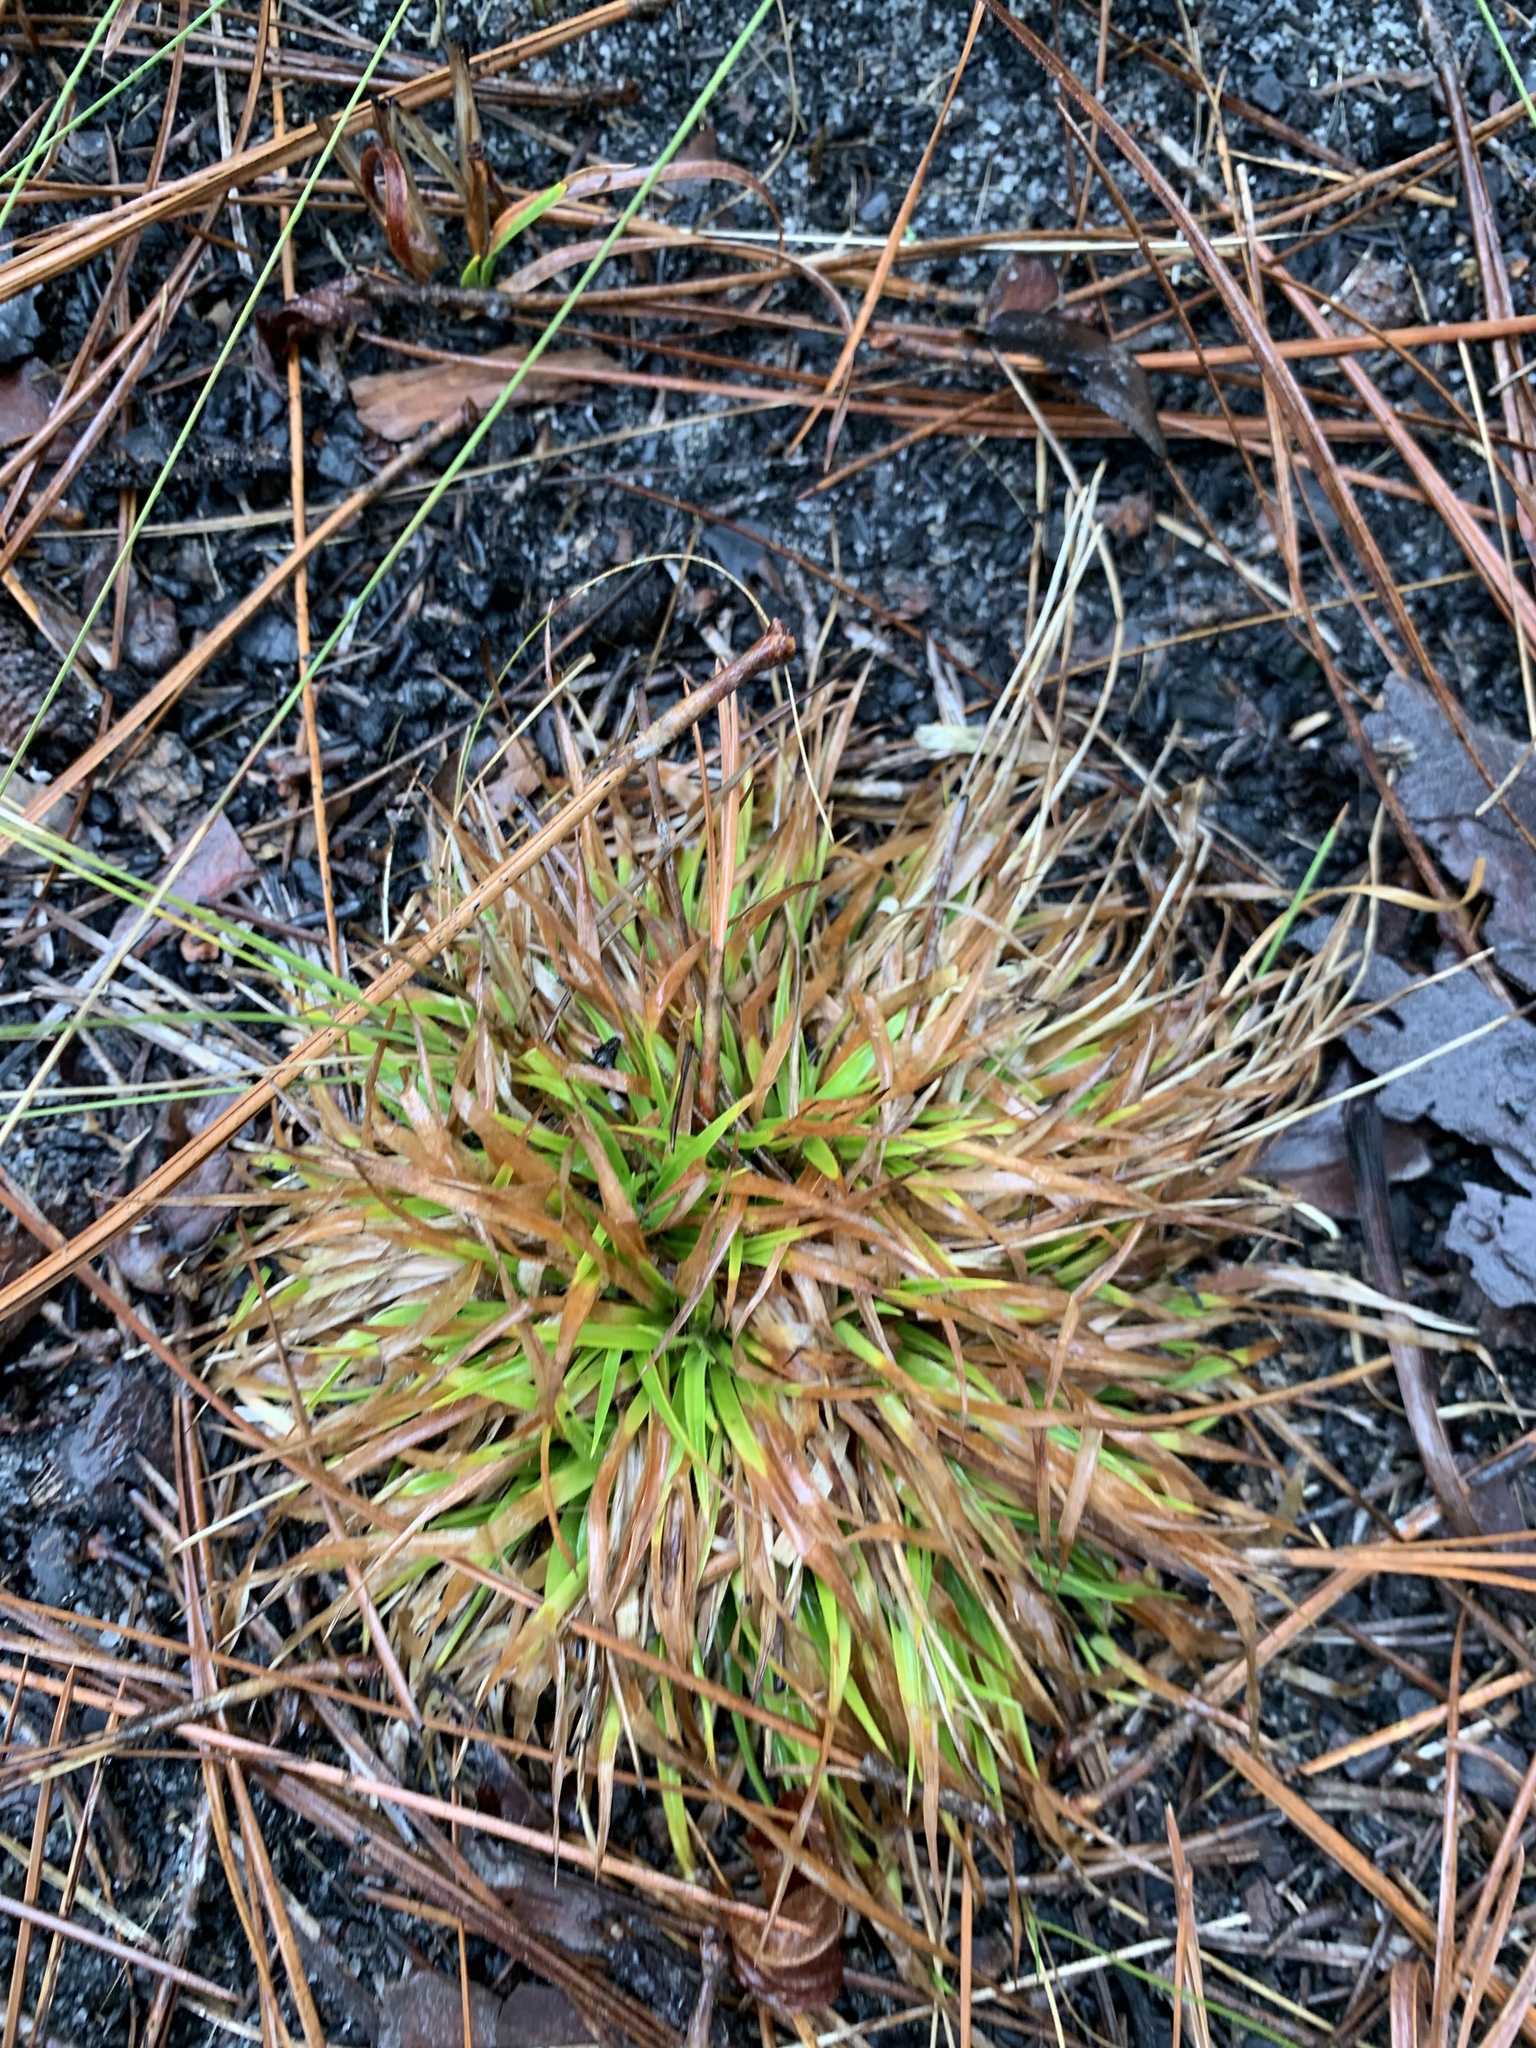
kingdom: Plantae
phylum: Tracheophyta
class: Liliopsida
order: Poales
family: Eriocaulaceae
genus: Paepalanthus
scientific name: Paepalanthus anceps
